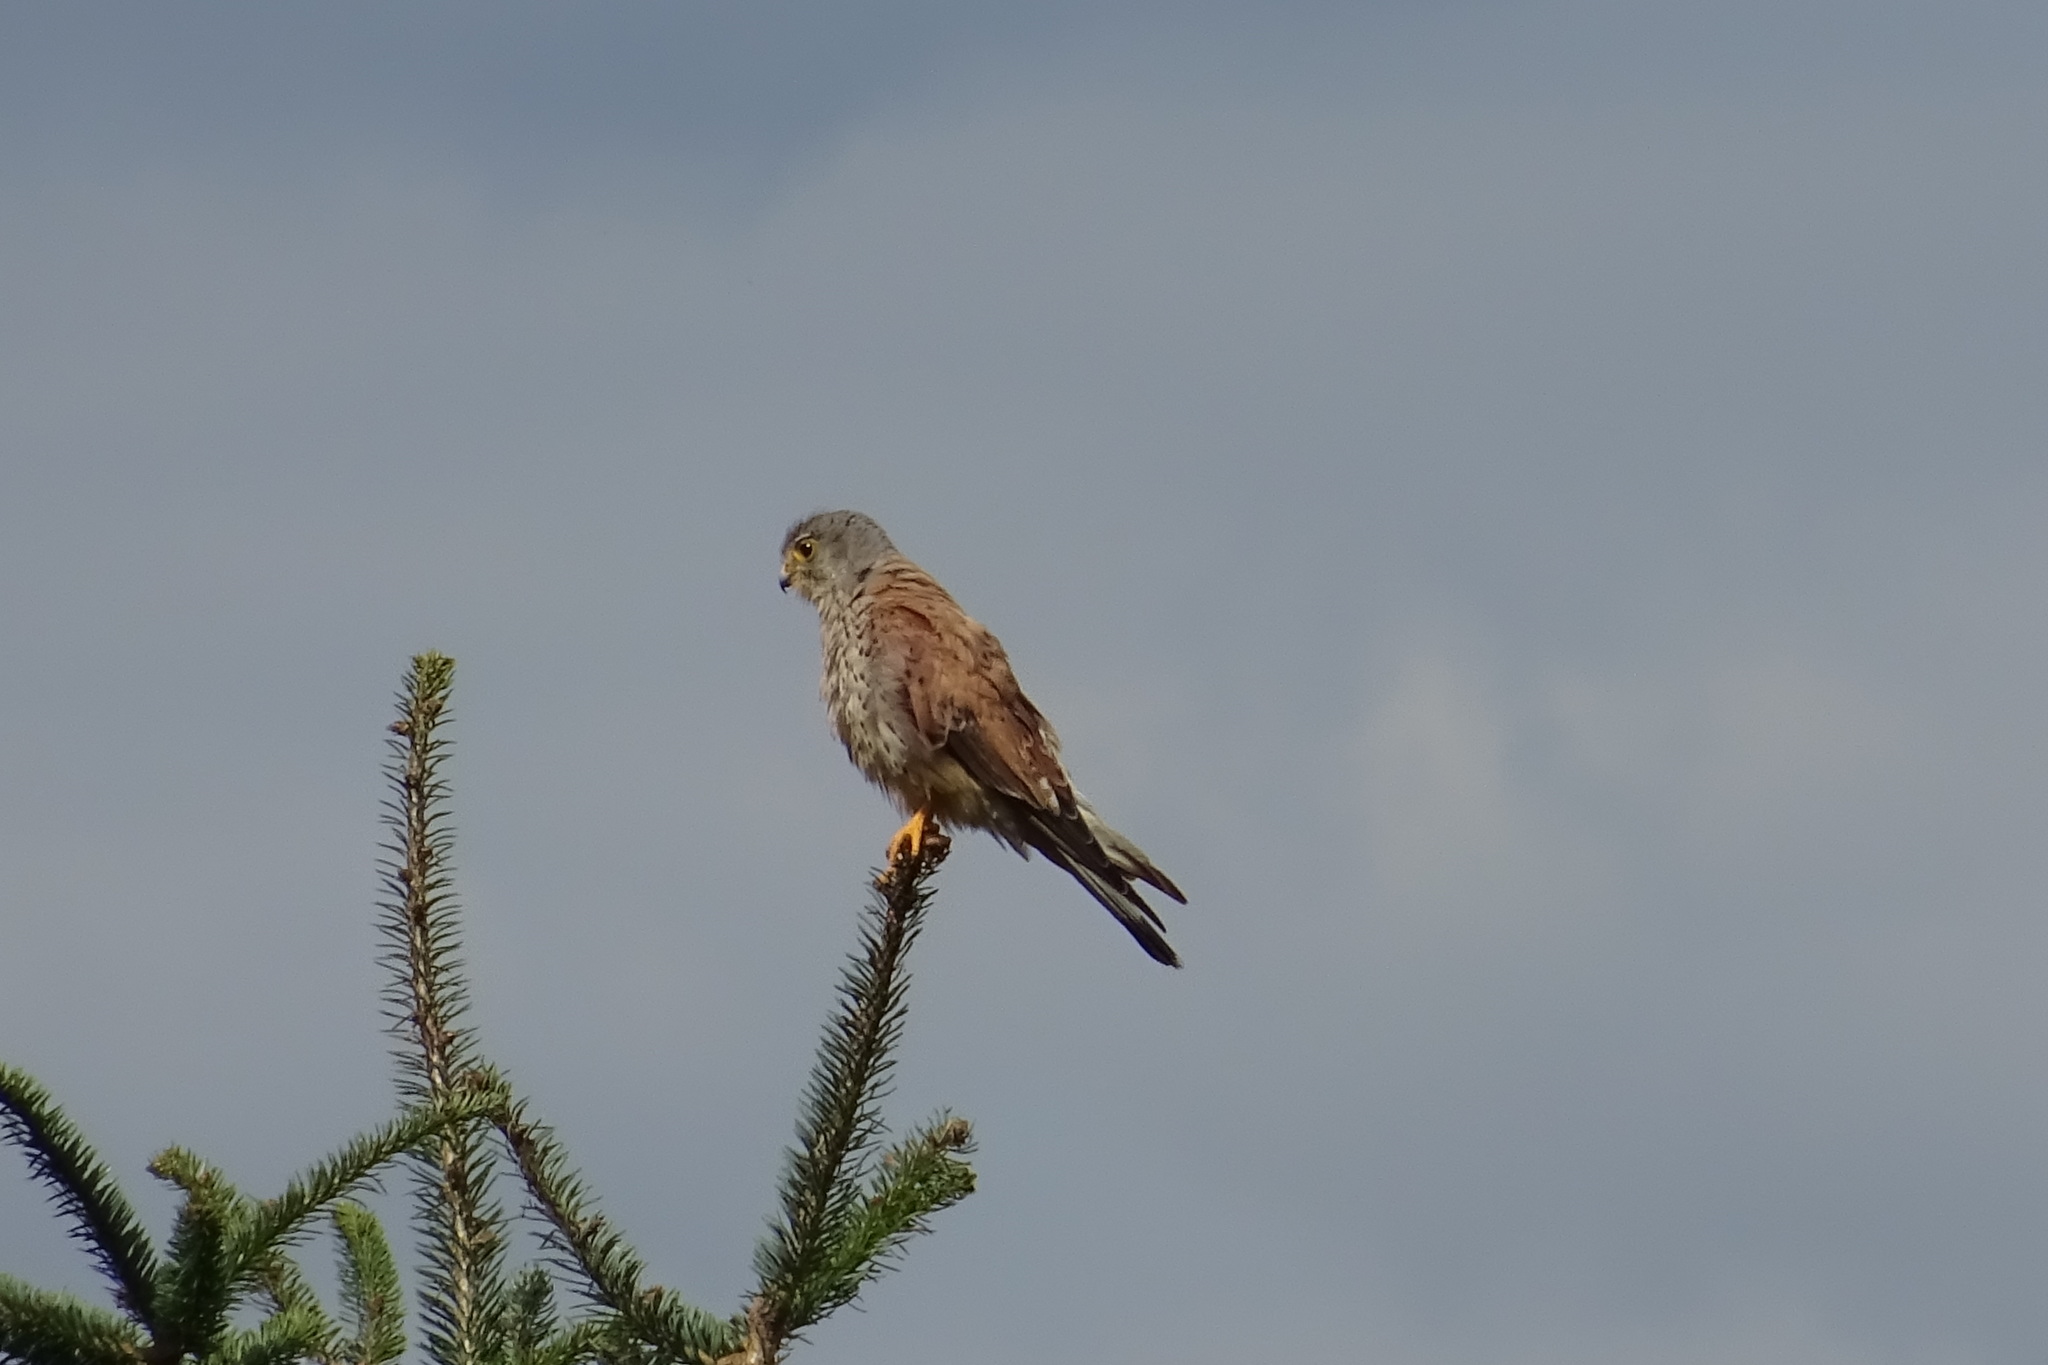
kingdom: Animalia
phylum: Chordata
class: Aves
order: Falconiformes
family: Falconidae
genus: Falco
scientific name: Falco tinnunculus
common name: Common kestrel
